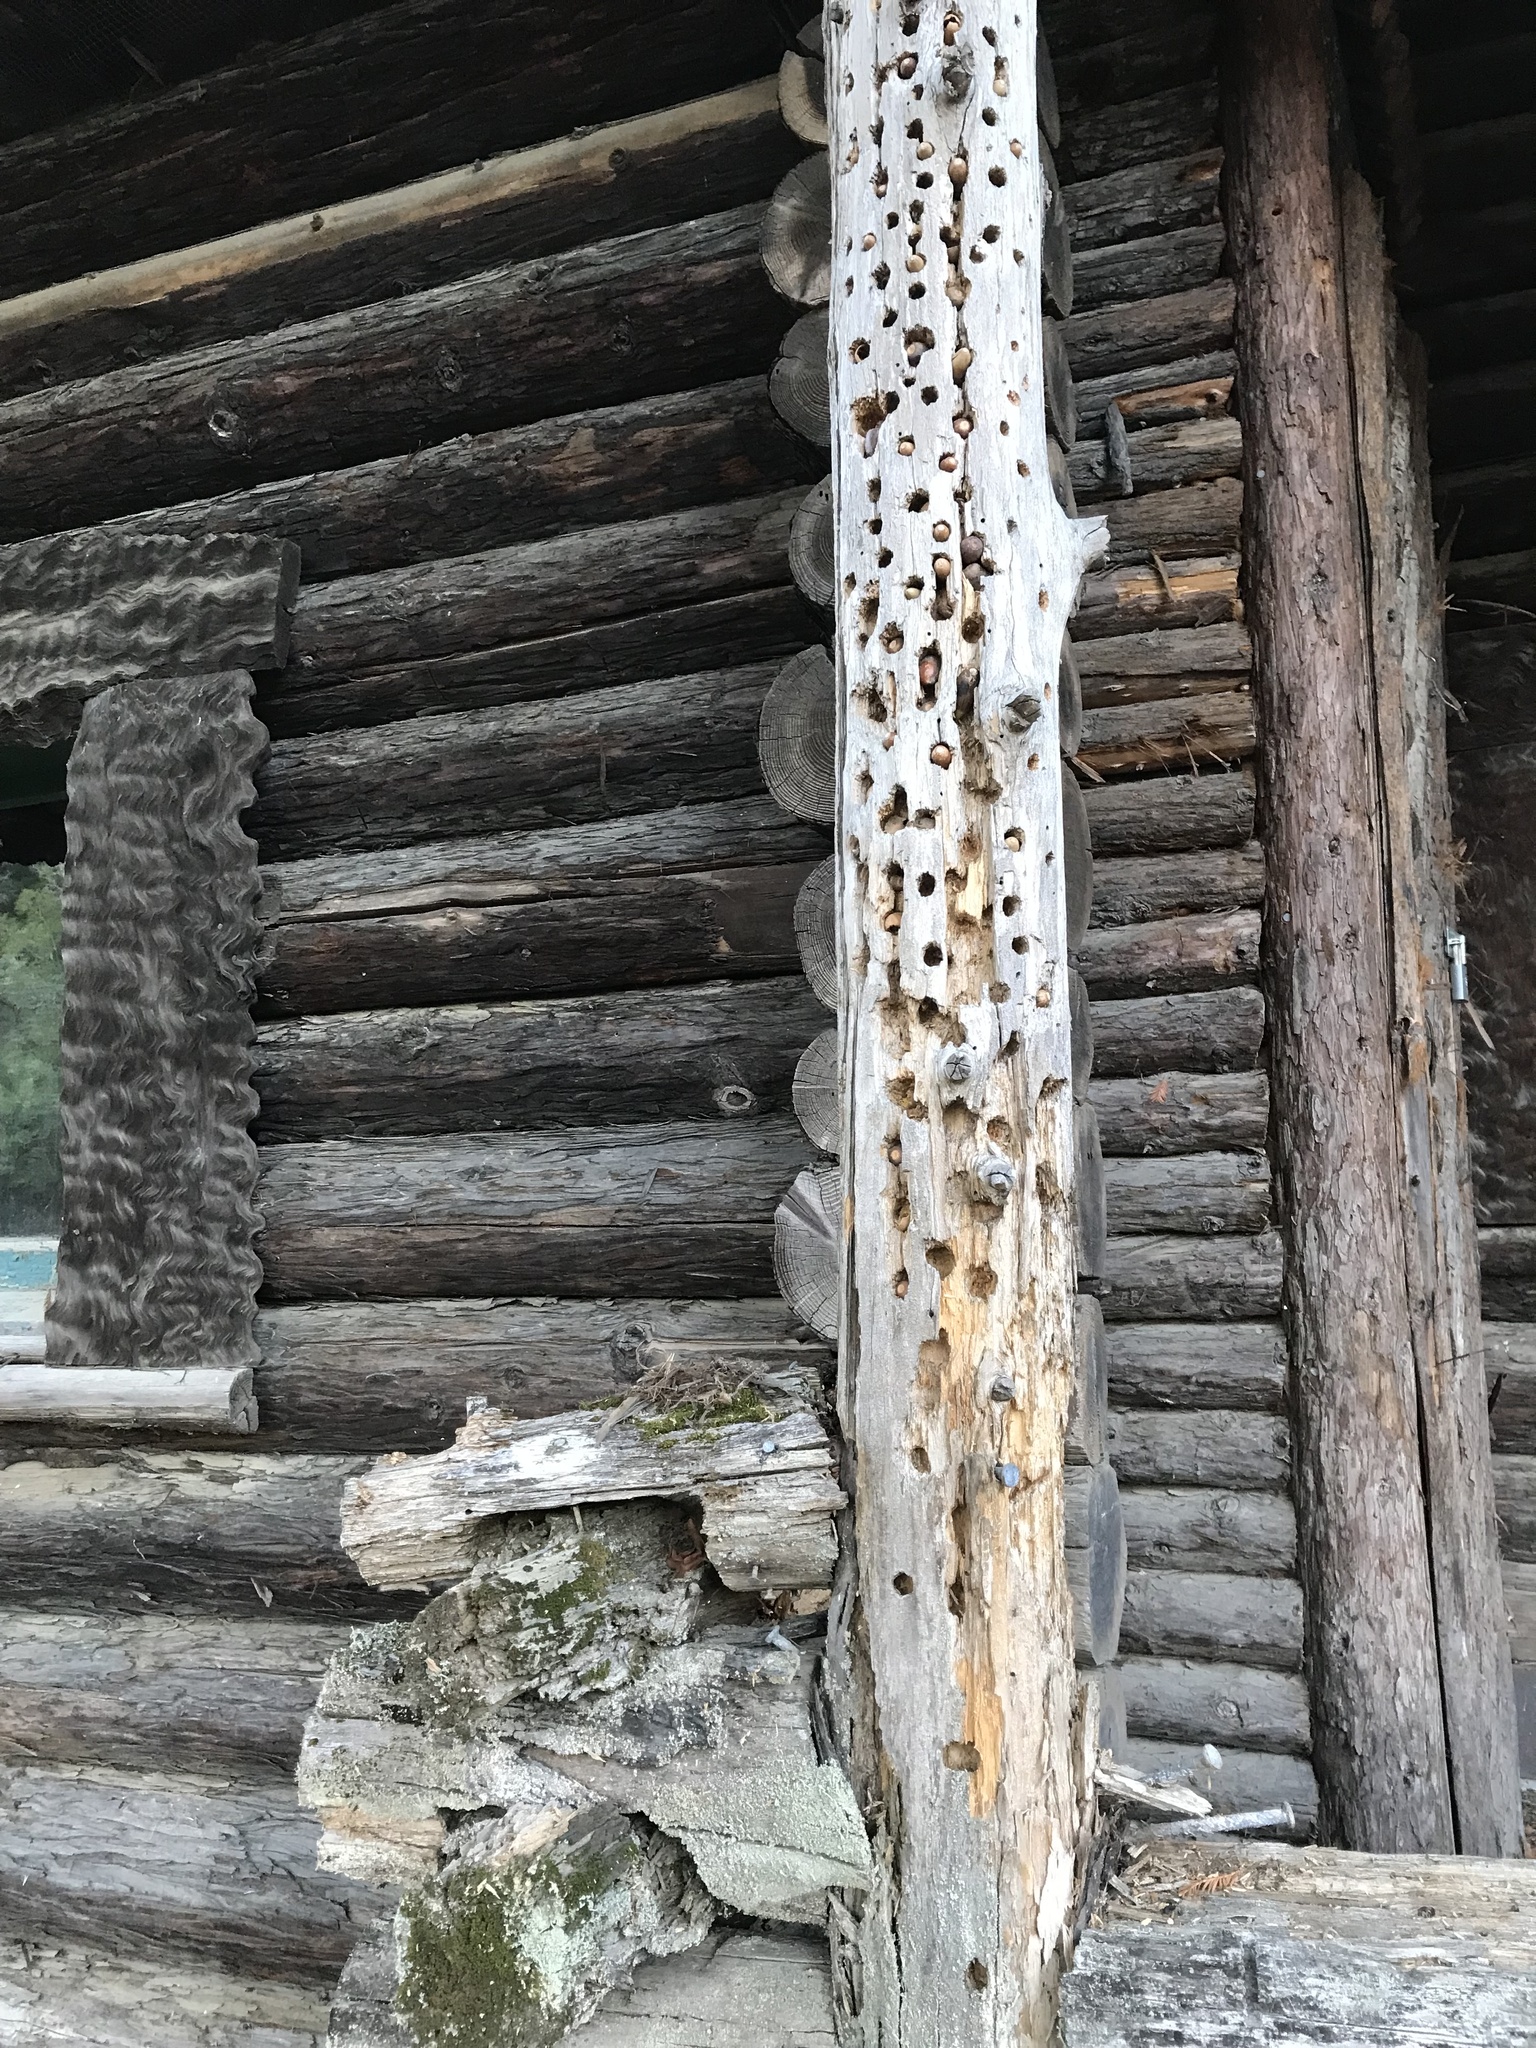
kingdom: Animalia
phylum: Chordata
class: Aves
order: Piciformes
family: Picidae
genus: Melanerpes
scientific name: Melanerpes formicivorus
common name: Acorn woodpecker
